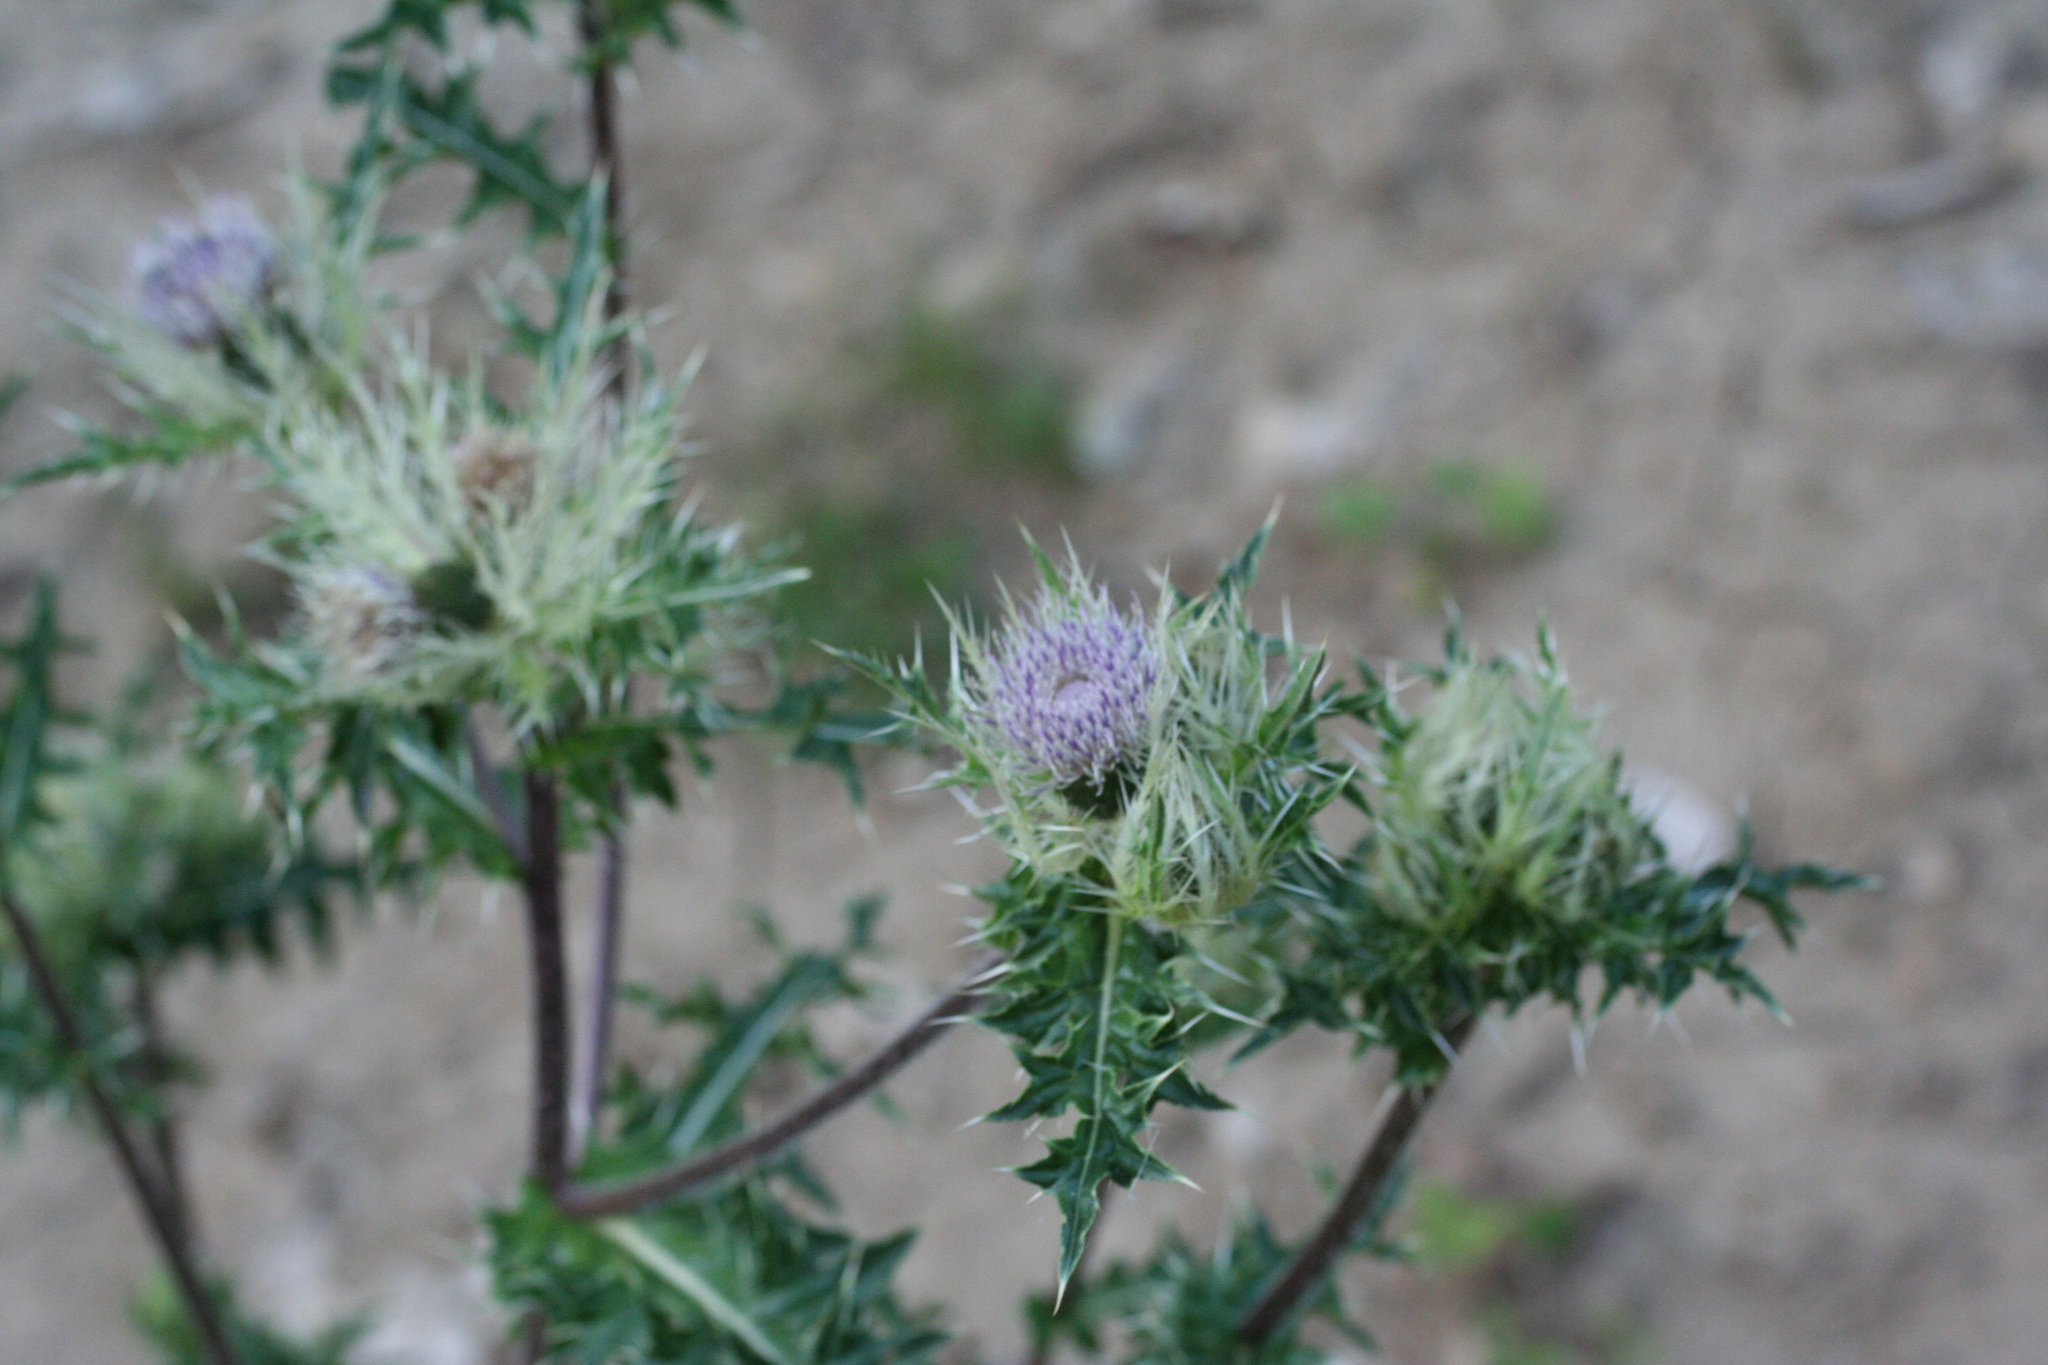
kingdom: Plantae
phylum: Tracheophyta
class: Magnoliopsida
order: Asterales
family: Asteraceae
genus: Cirsium
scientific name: Cirsium obvallatum
